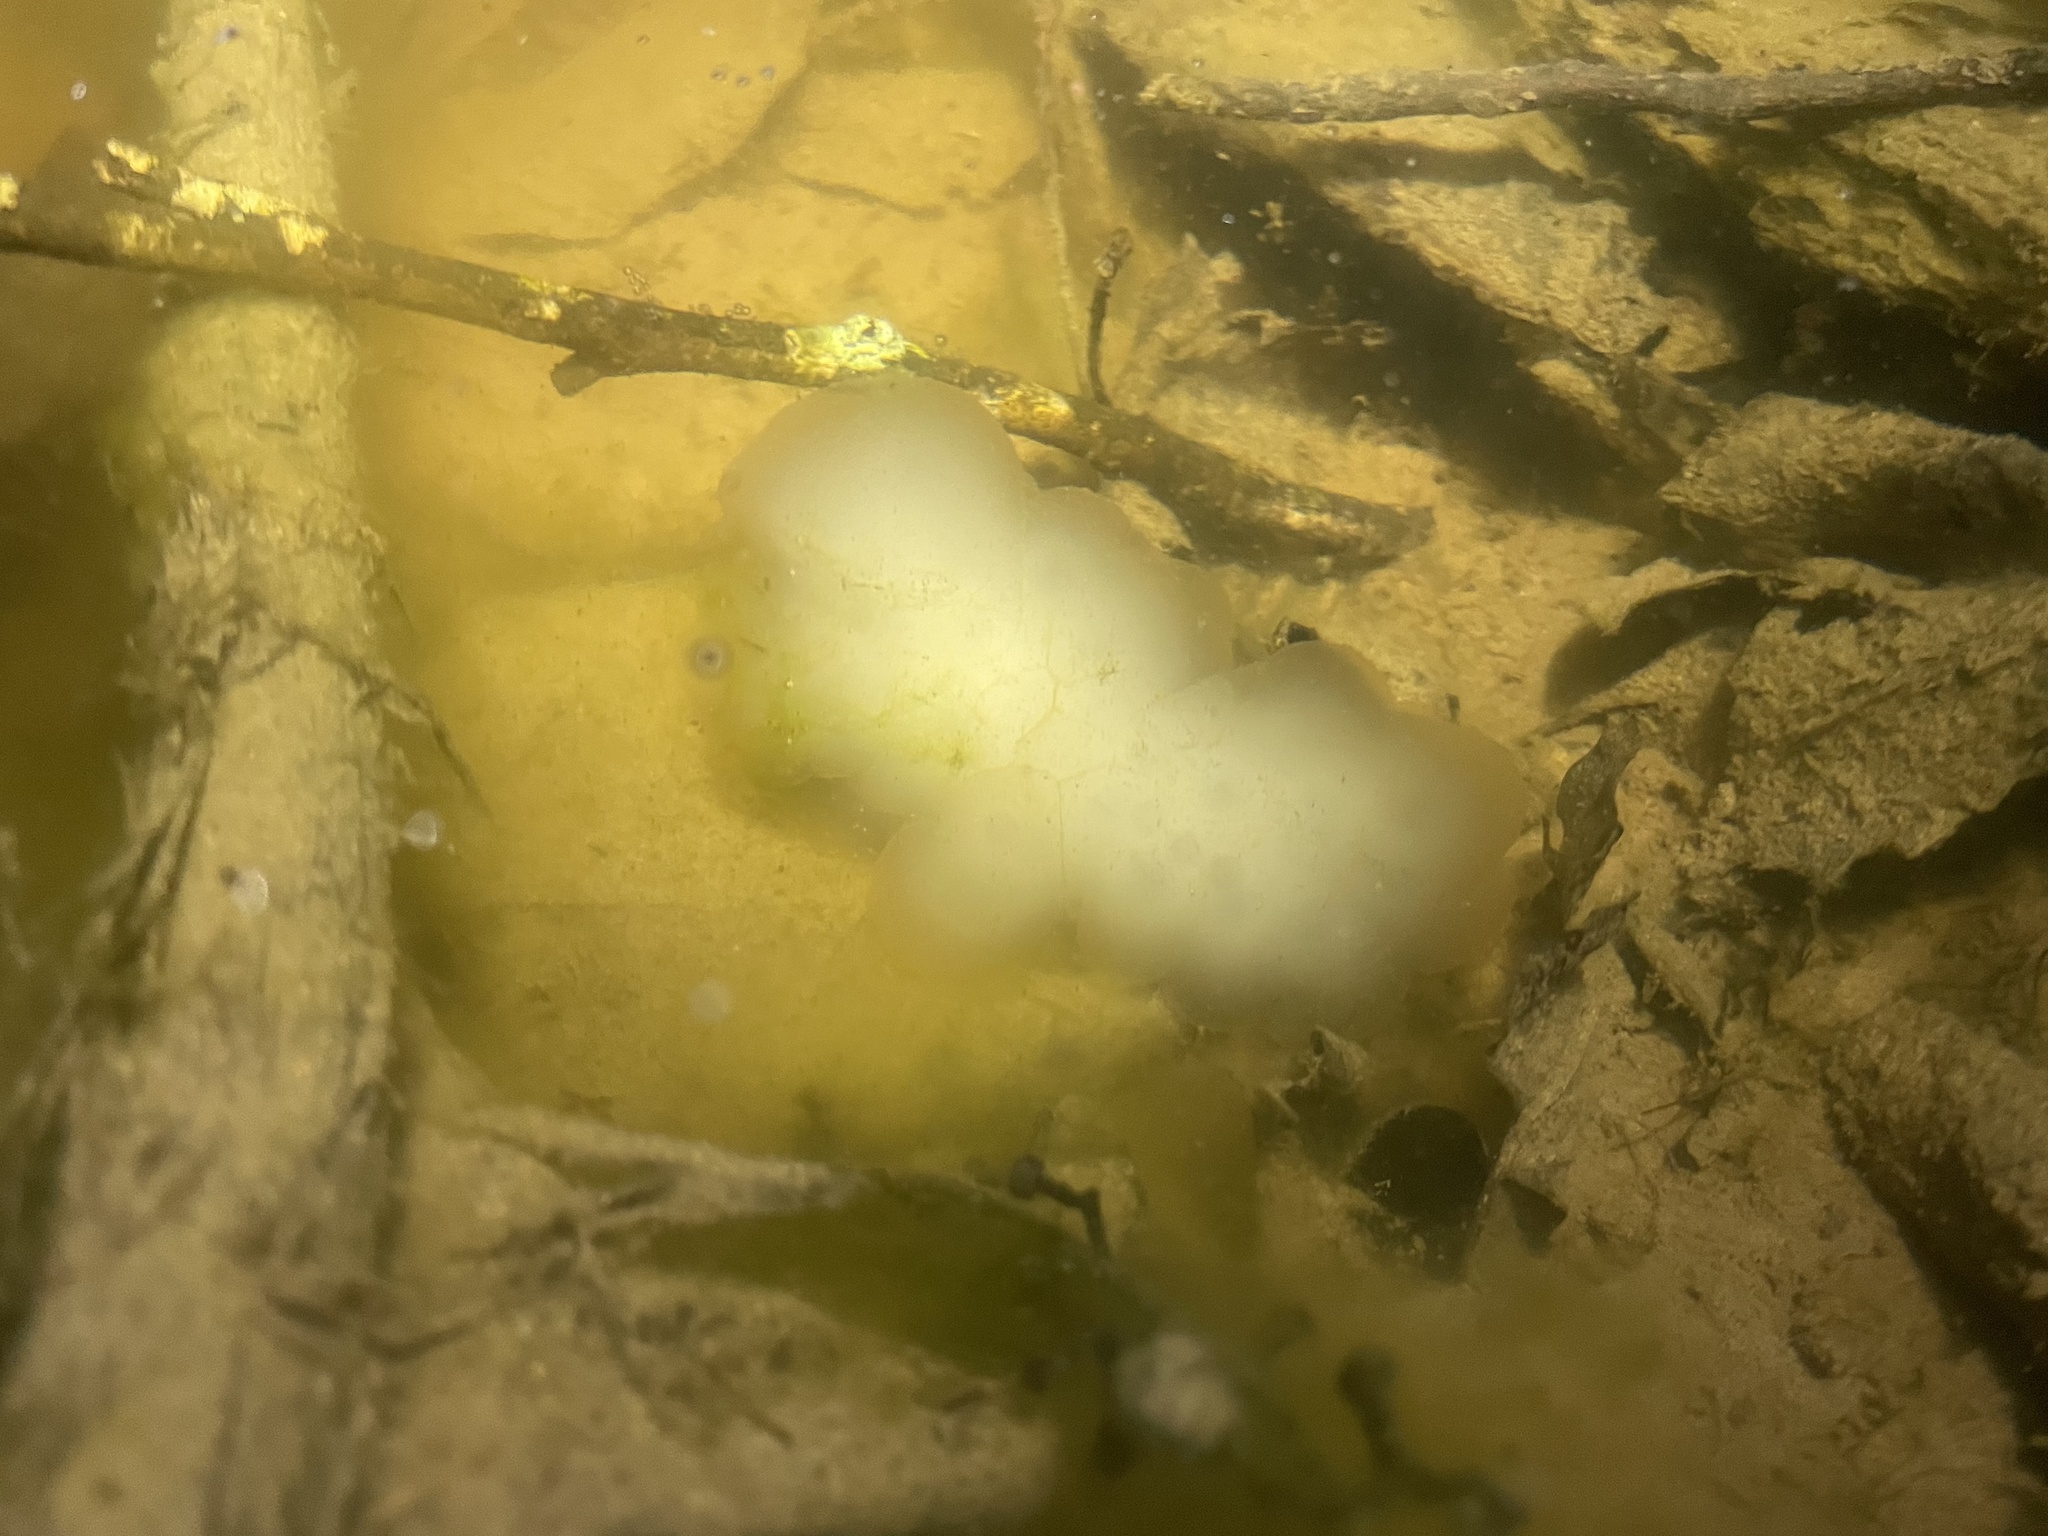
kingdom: Animalia
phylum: Chordata
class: Amphibia
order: Caudata
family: Ambystomatidae
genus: Ambystoma
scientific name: Ambystoma maculatum
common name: Spotted salamander
